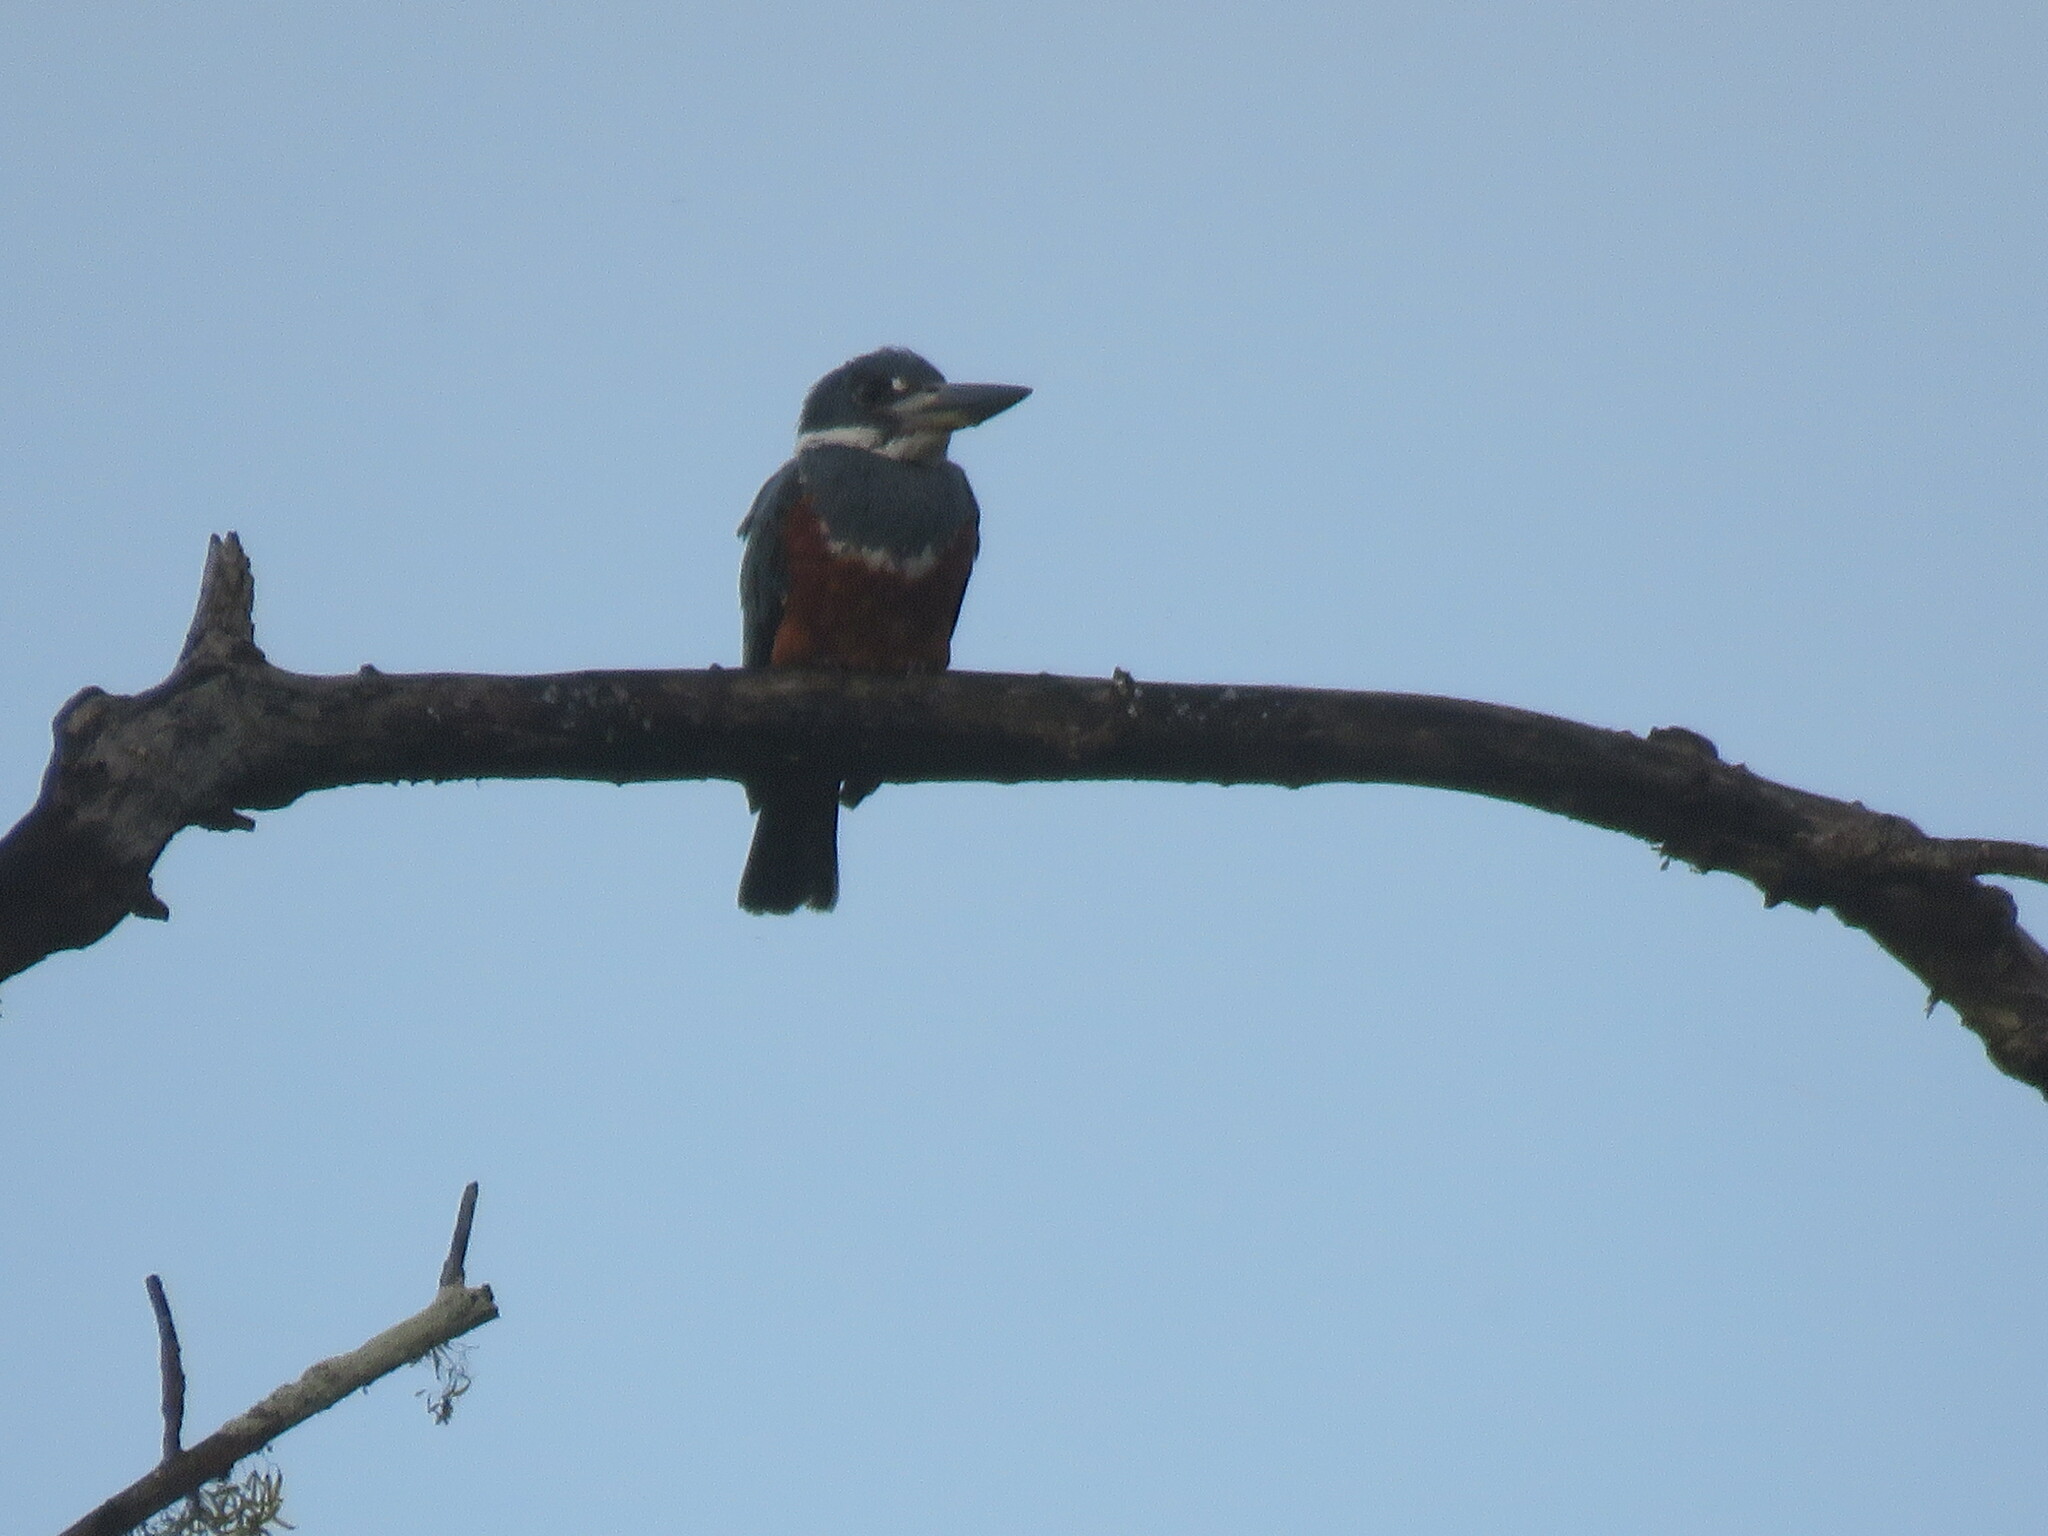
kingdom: Animalia
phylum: Chordata
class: Aves
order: Coraciiformes
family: Alcedinidae
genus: Megaceryle
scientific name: Megaceryle torquata
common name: Ringed kingfisher
